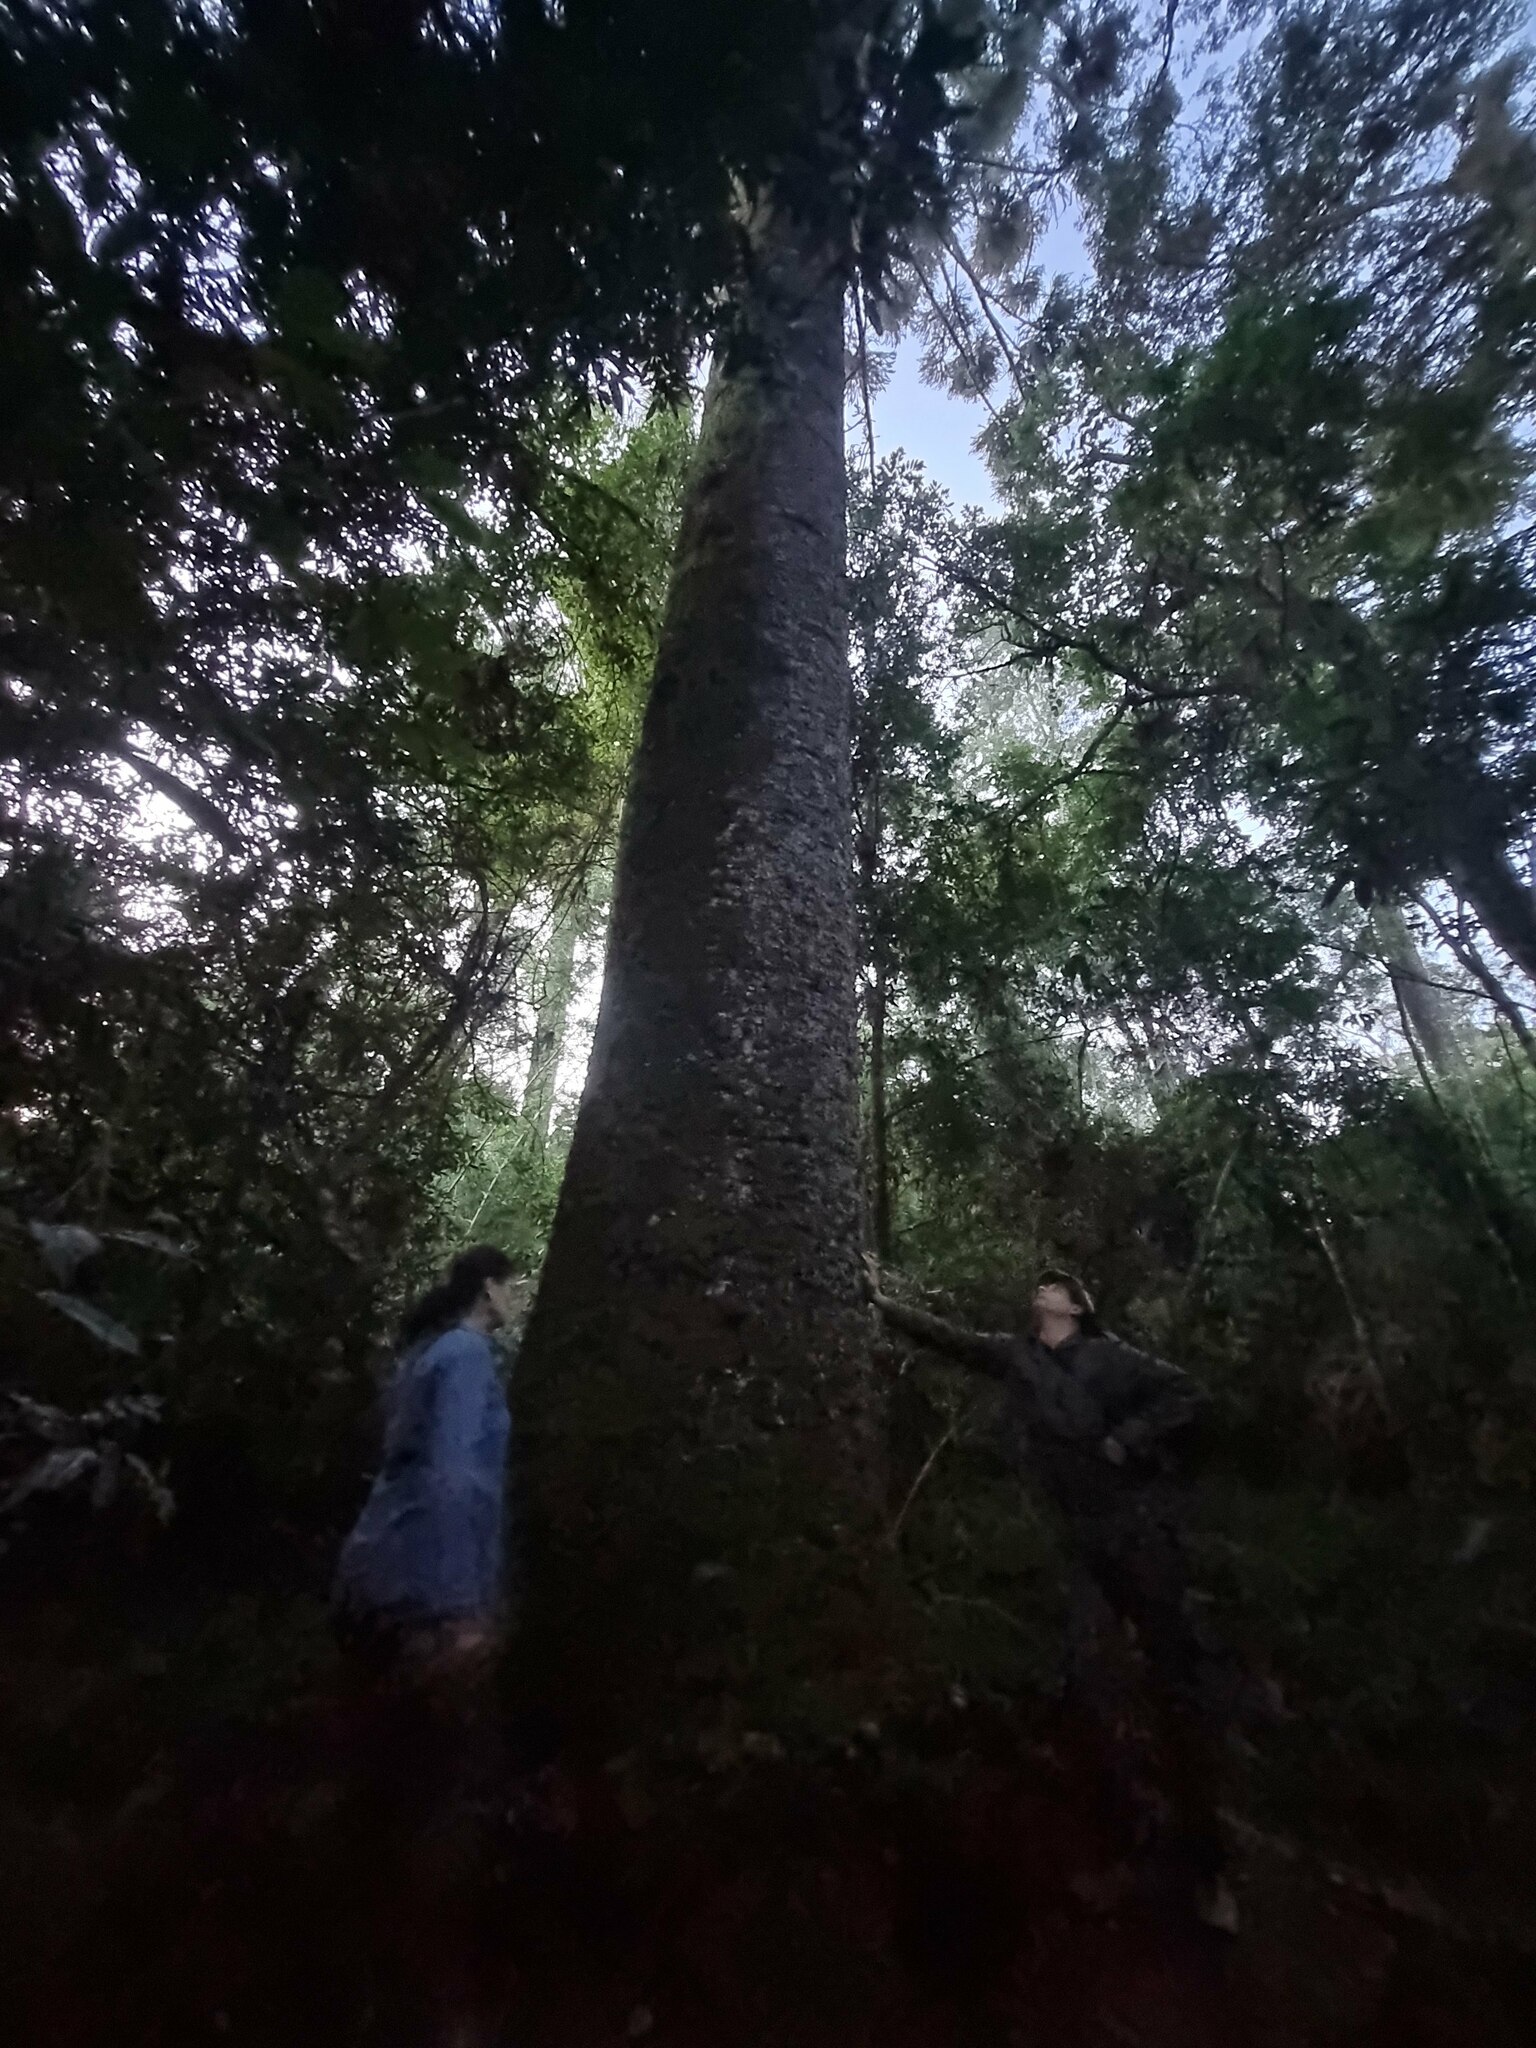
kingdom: Plantae
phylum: Tracheophyta
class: Pinopsida
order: Pinales
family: Araucariaceae
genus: Araucaria
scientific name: Araucaria angustifolia
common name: Candelabra tree
